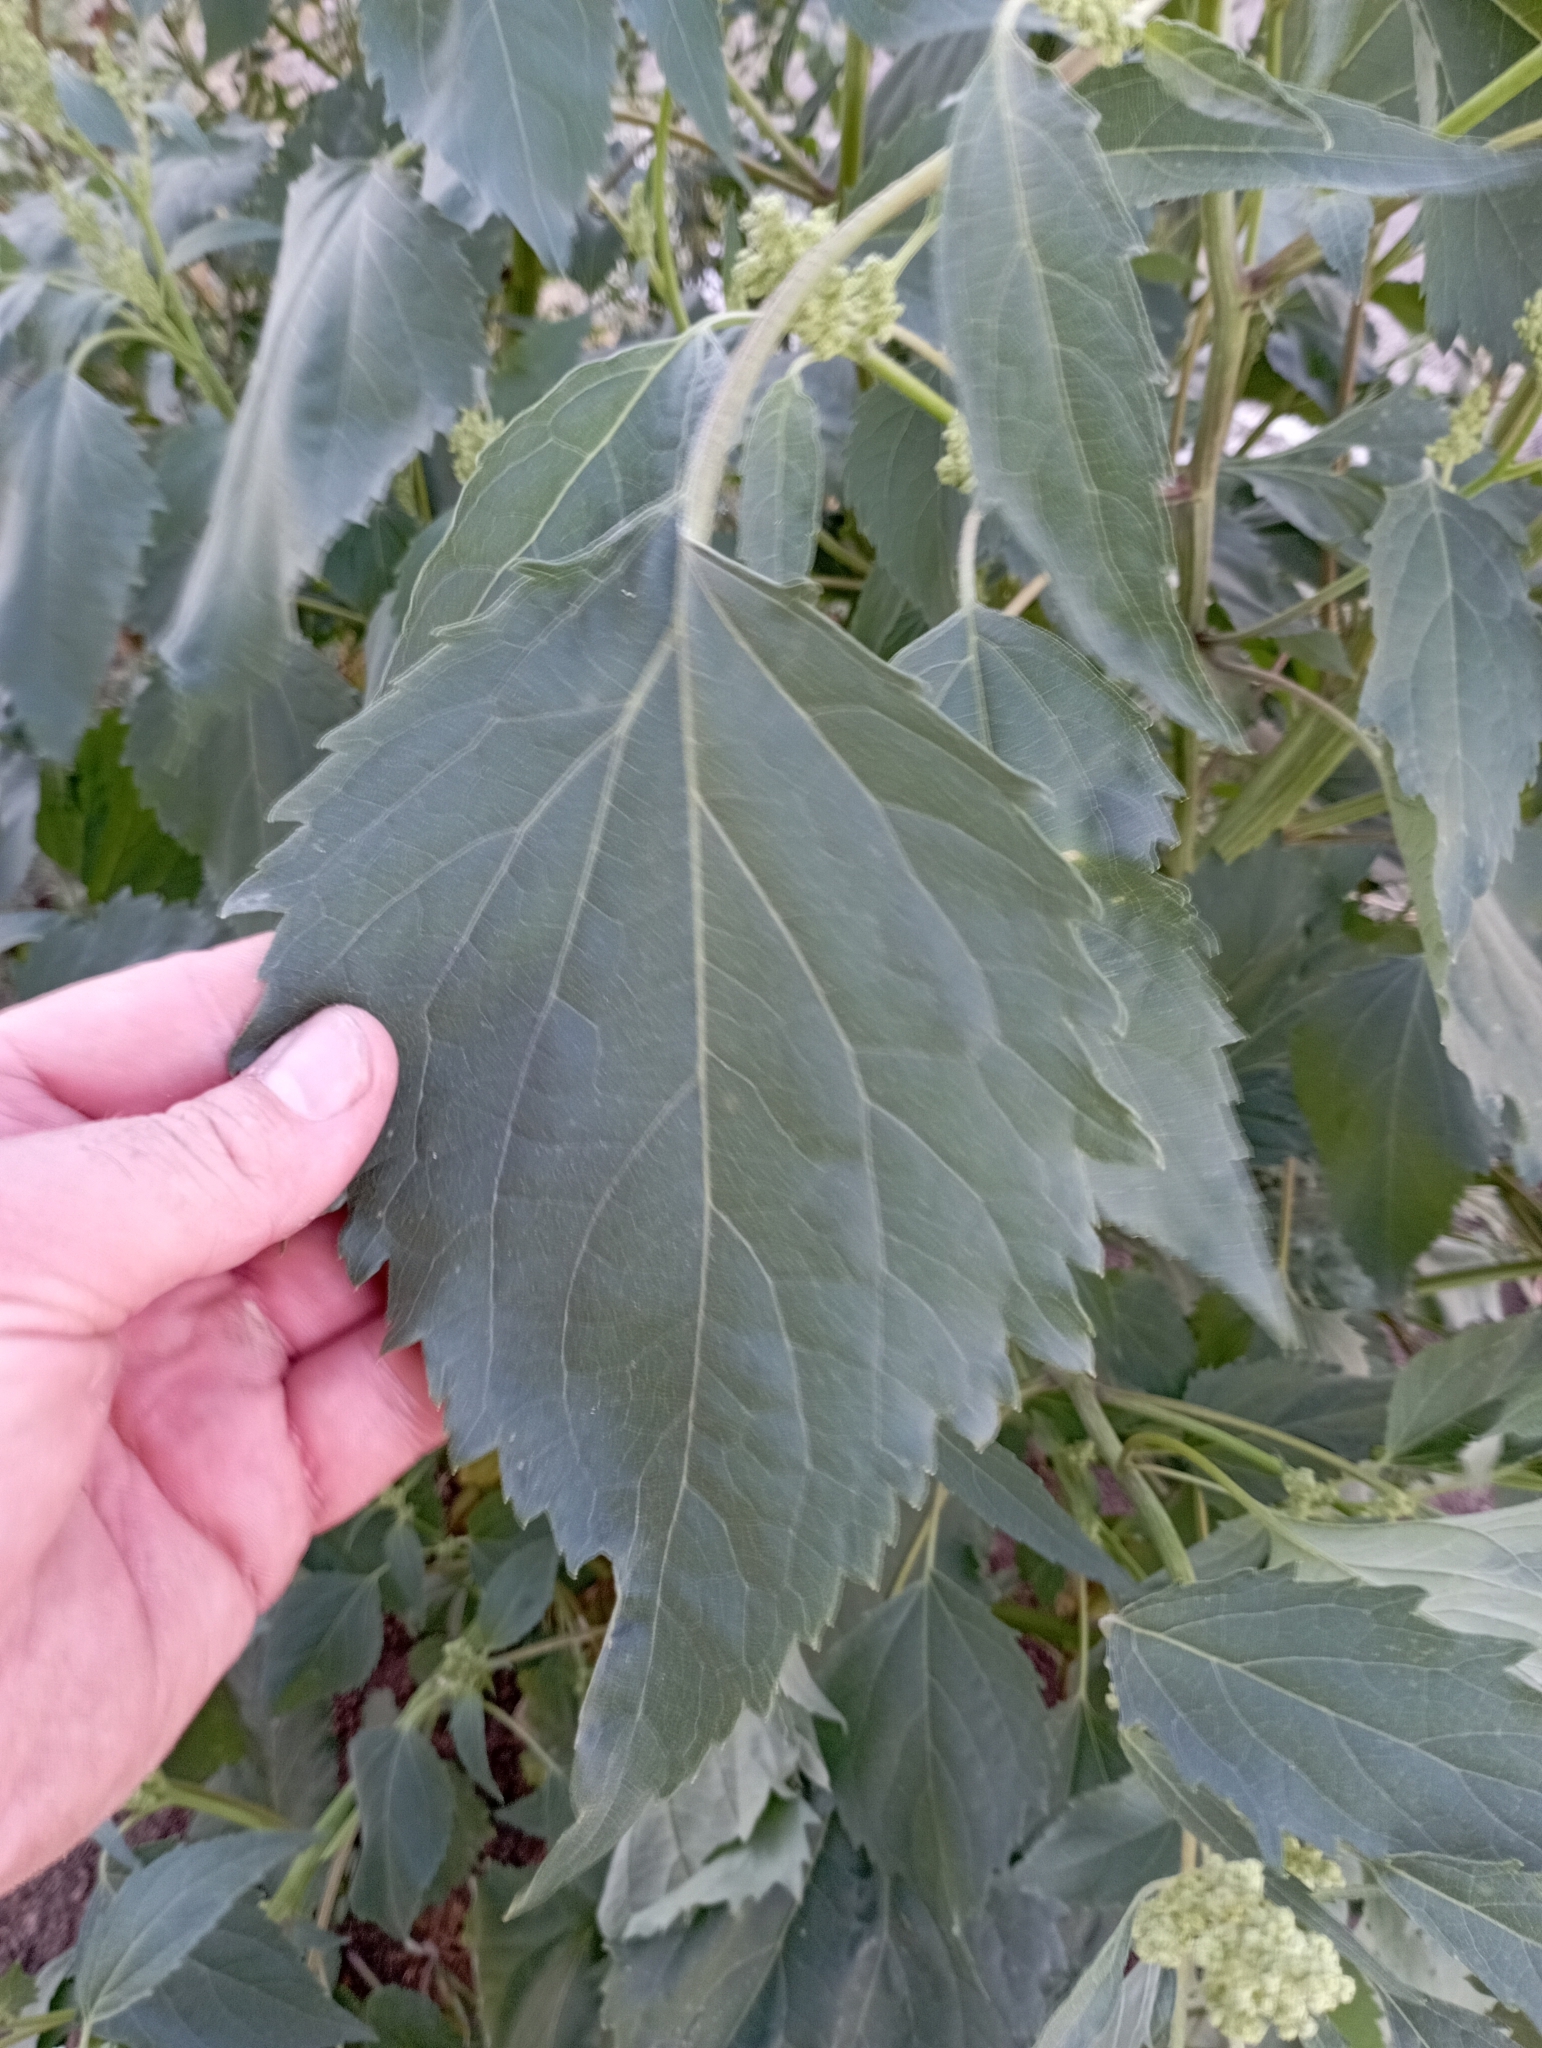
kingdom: Plantae
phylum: Tracheophyta
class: Magnoliopsida
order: Asterales
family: Asteraceae
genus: Cyclachaena
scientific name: Cyclachaena xanthiifolia
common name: Giant sumpweed
